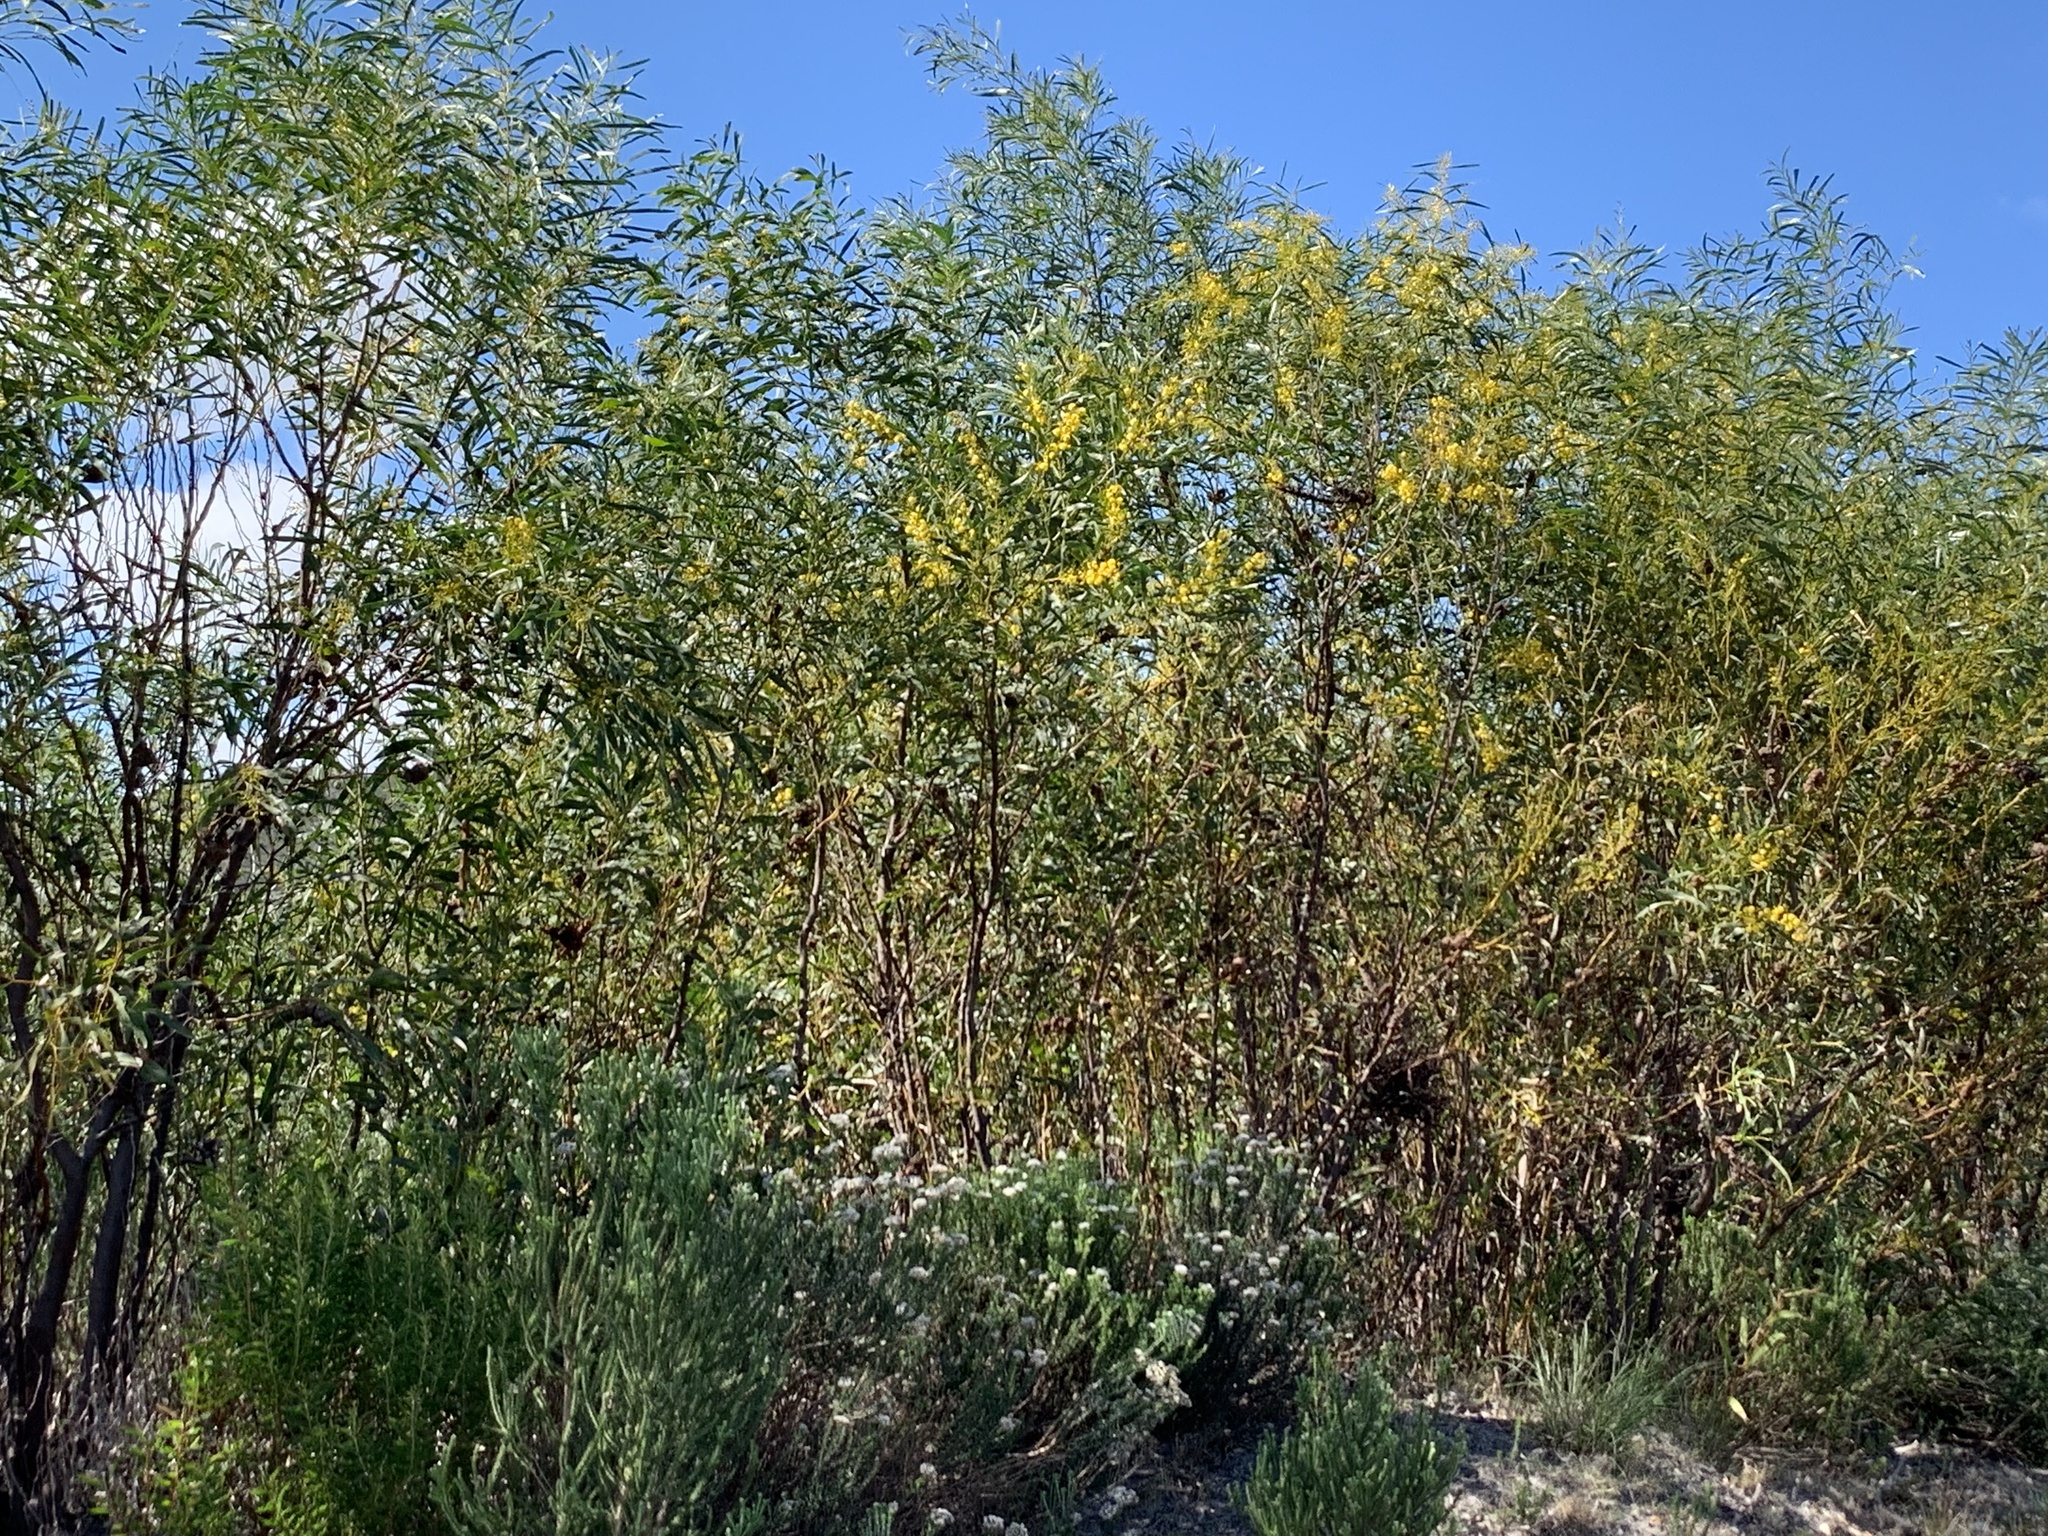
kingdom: Plantae
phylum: Tracheophyta
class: Magnoliopsida
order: Fabales
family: Fabaceae
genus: Acacia
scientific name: Acacia saligna
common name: Orange wattle
